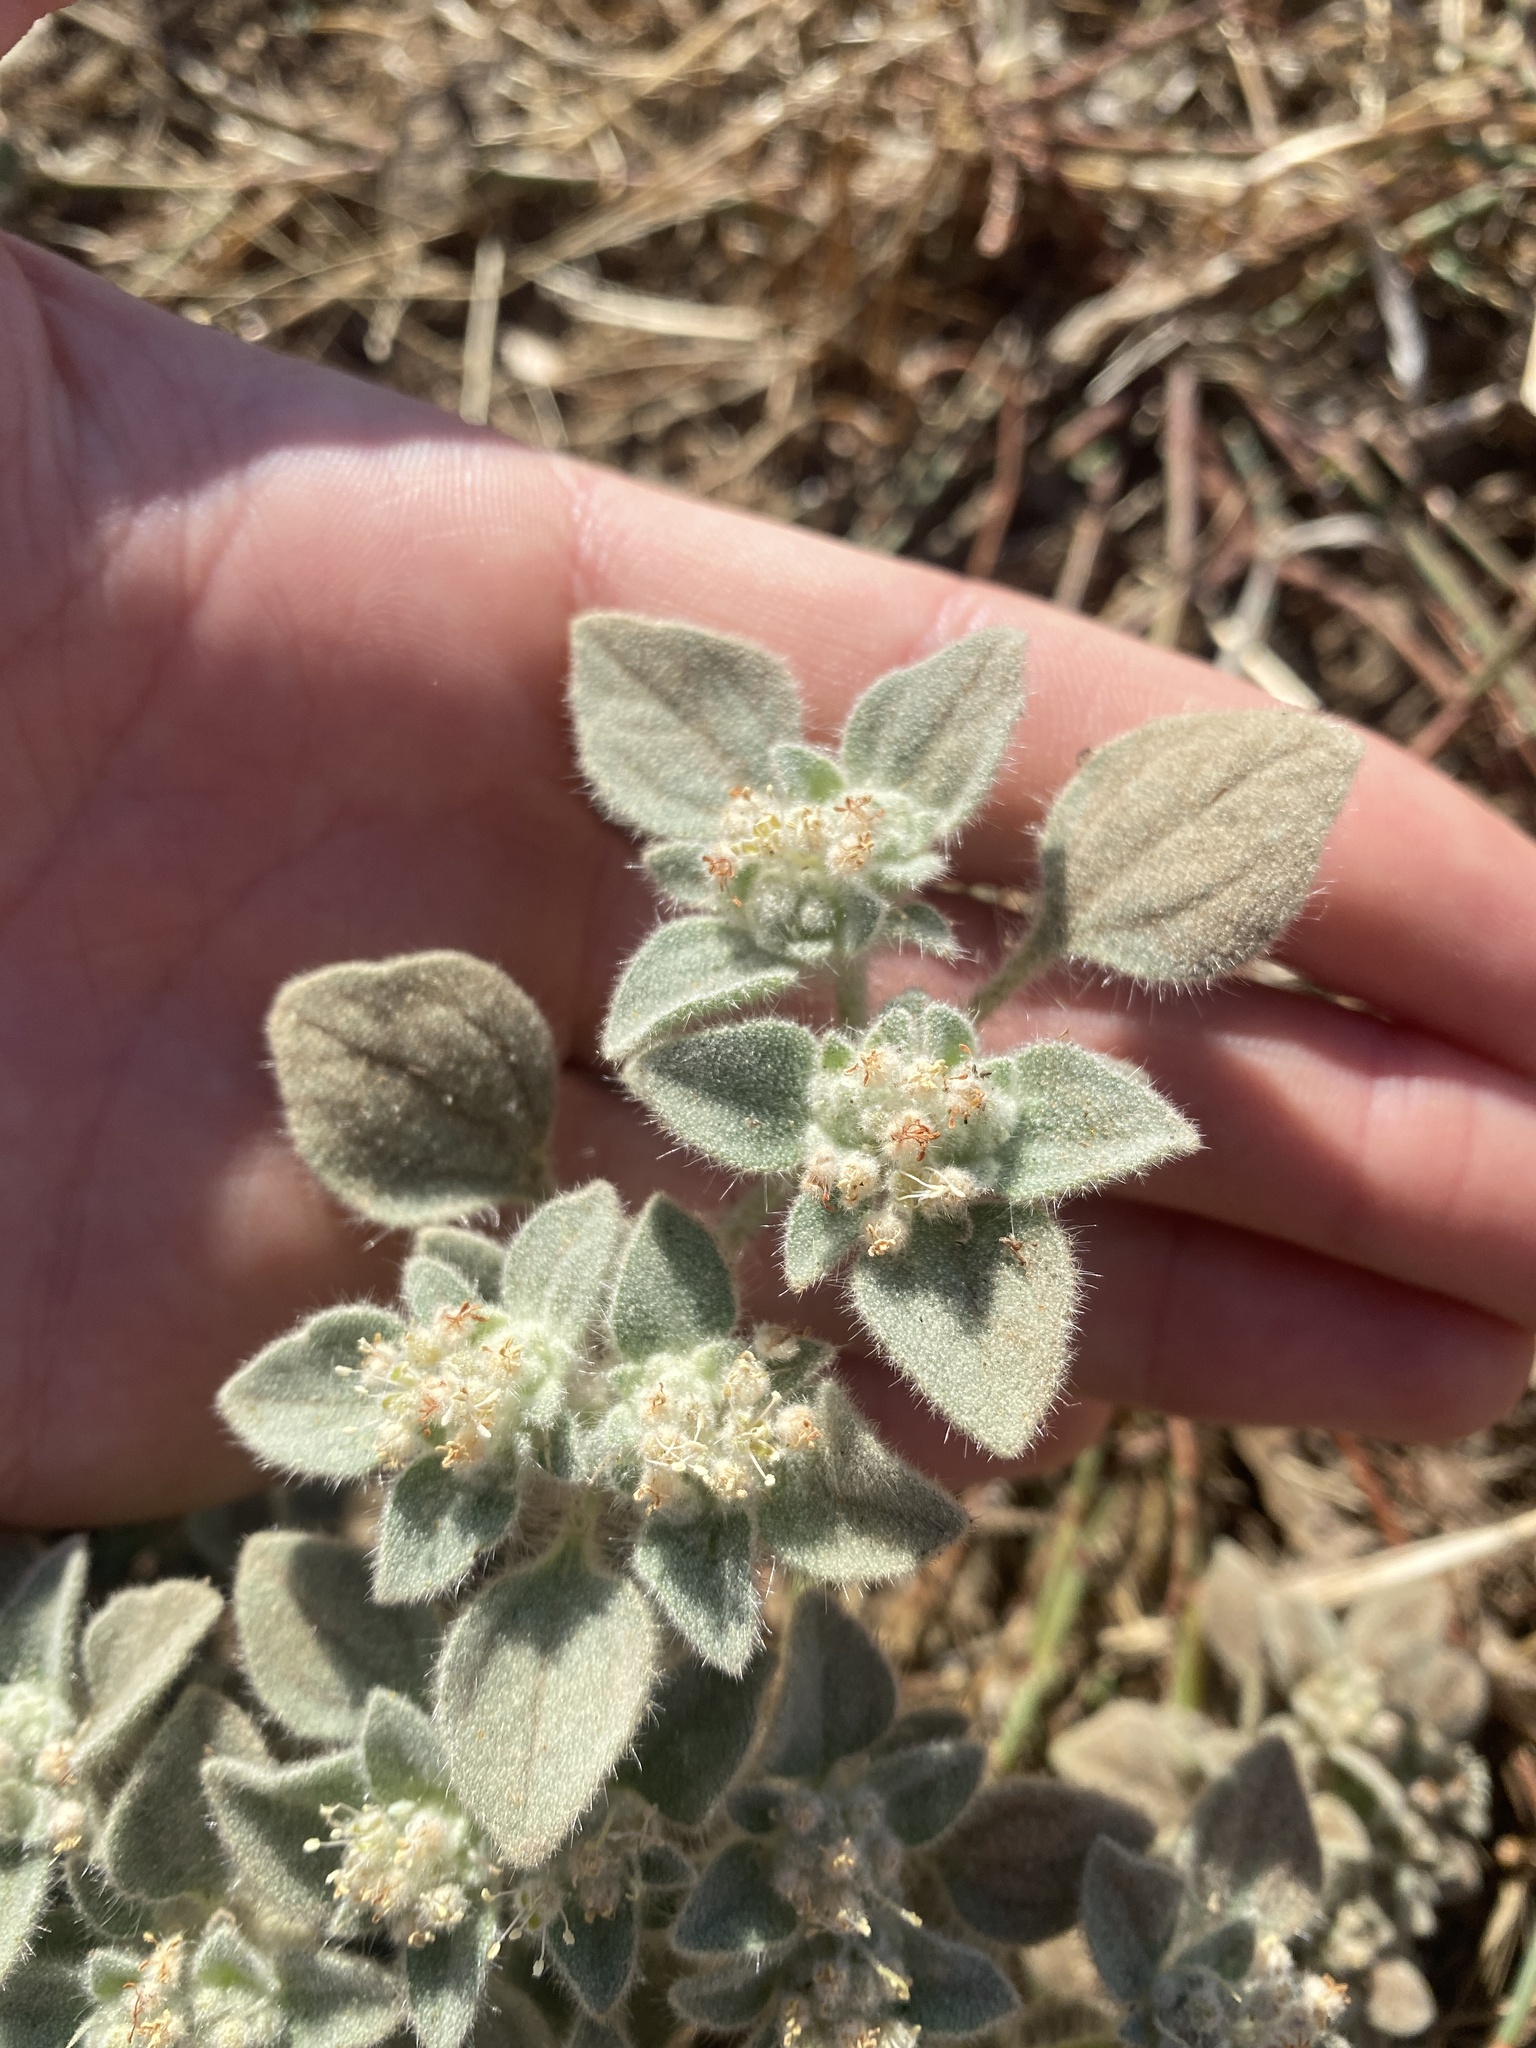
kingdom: Plantae
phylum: Tracheophyta
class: Magnoliopsida
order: Malpighiales
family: Euphorbiaceae
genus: Croton
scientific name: Croton setiger
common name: Dove weed
